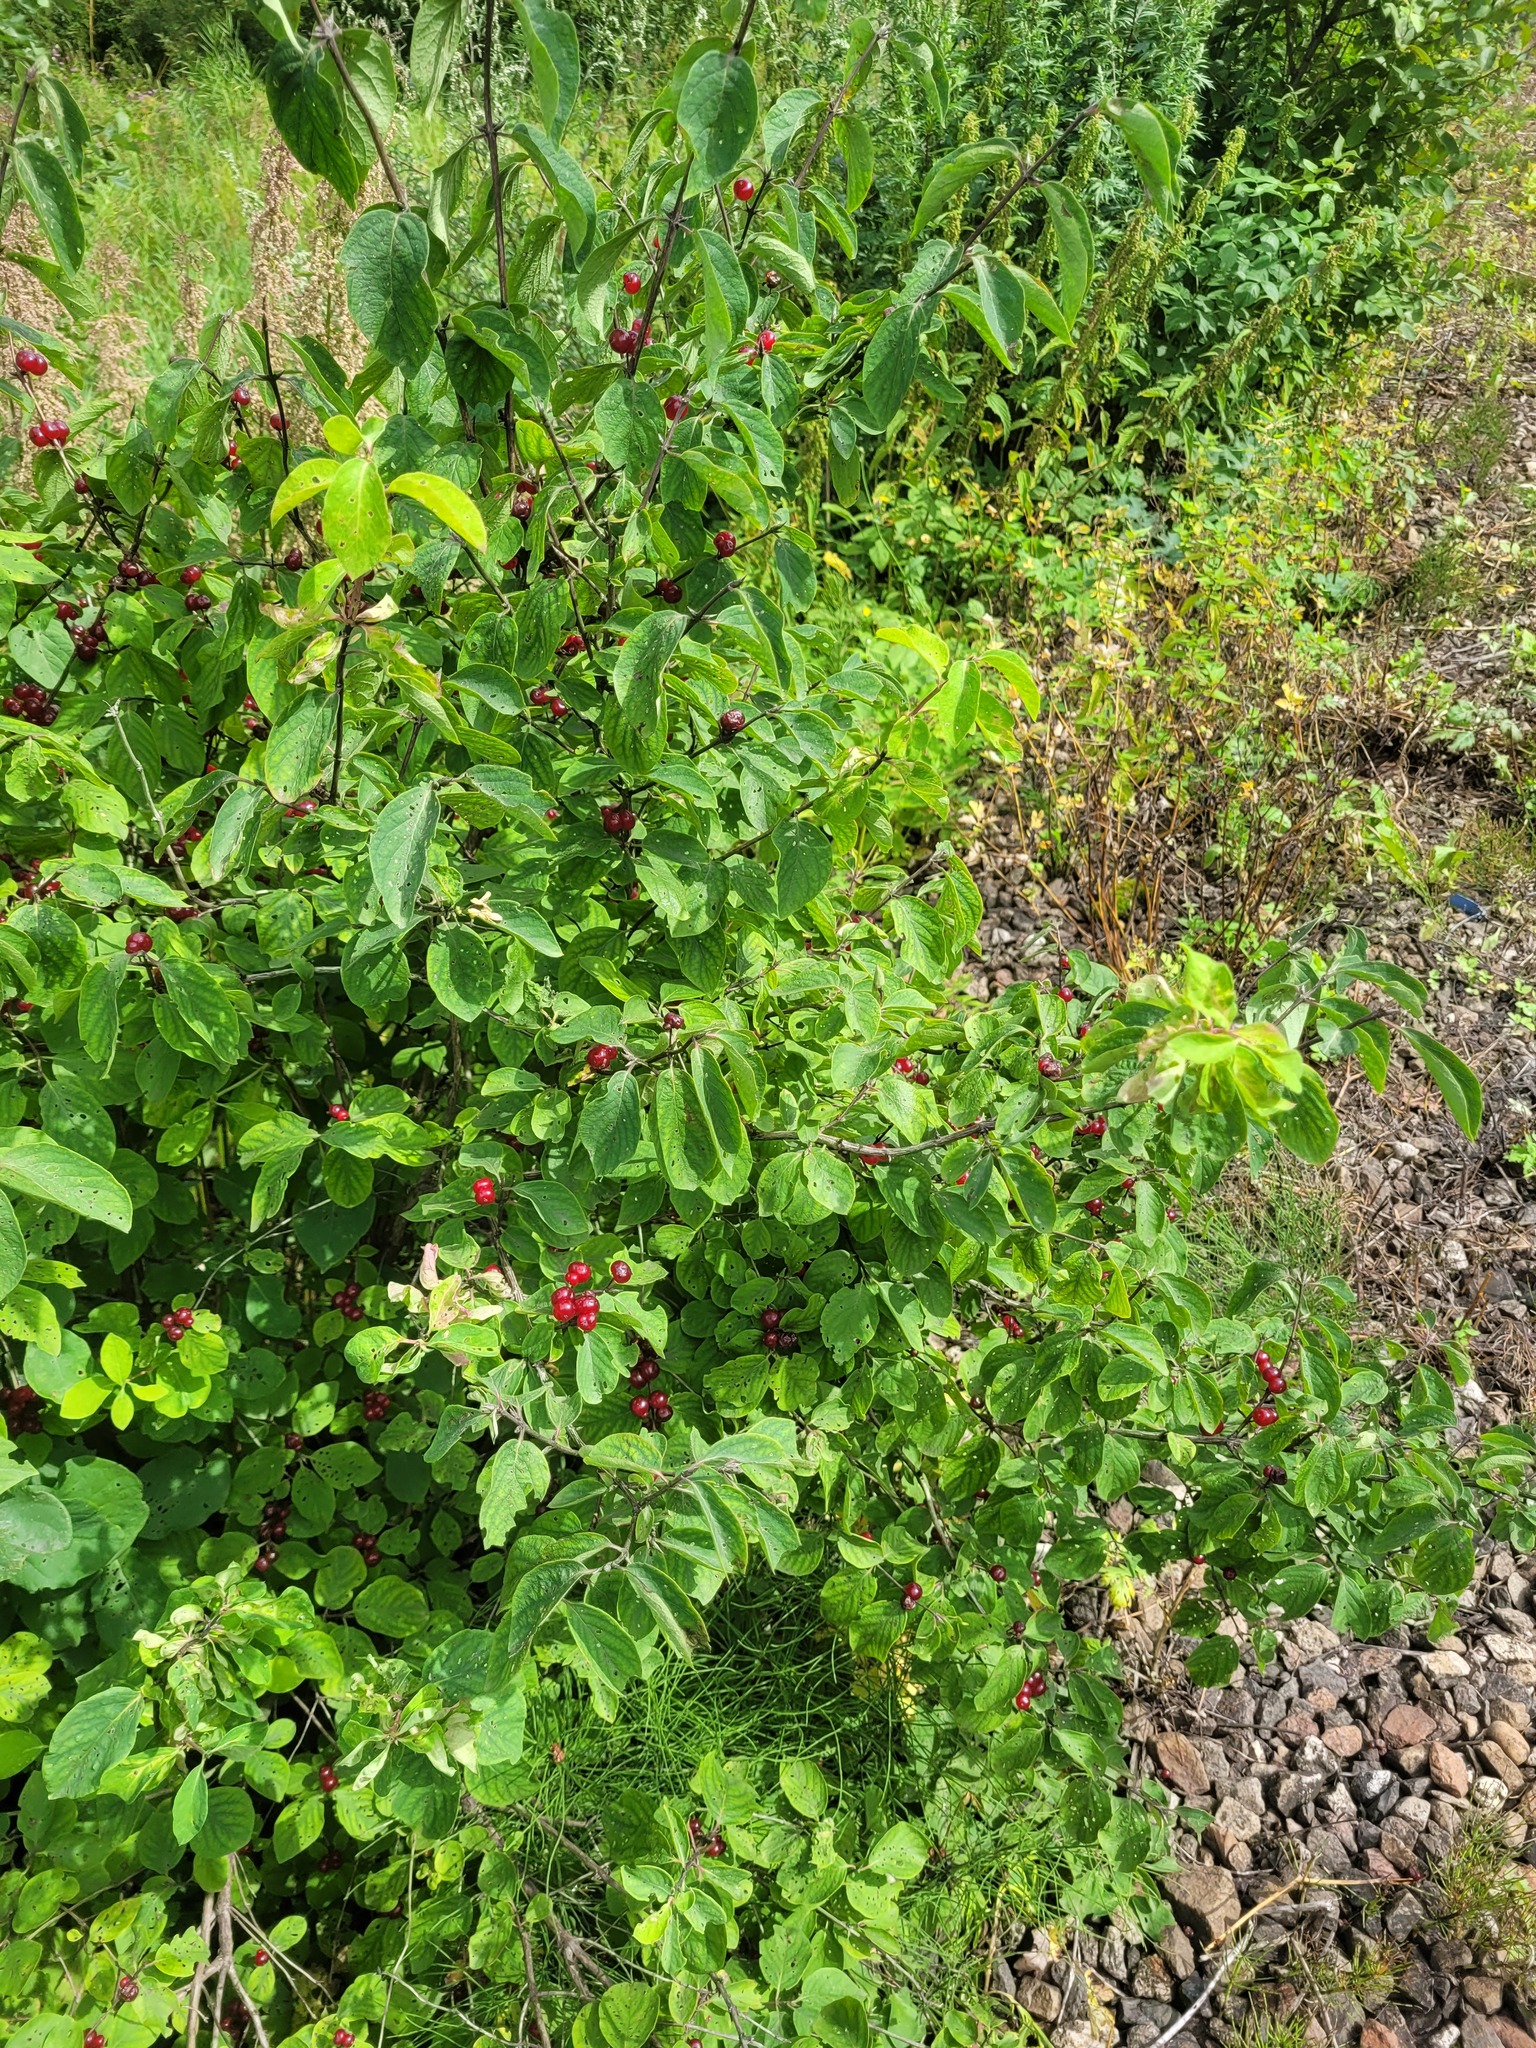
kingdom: Plantae
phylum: Tracheophyta
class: Magnoliopsida
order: Dipsacales
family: Caprifoliaceae
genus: Lonicera
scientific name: Lonicera xylosteum
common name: Fly honeysuckle
